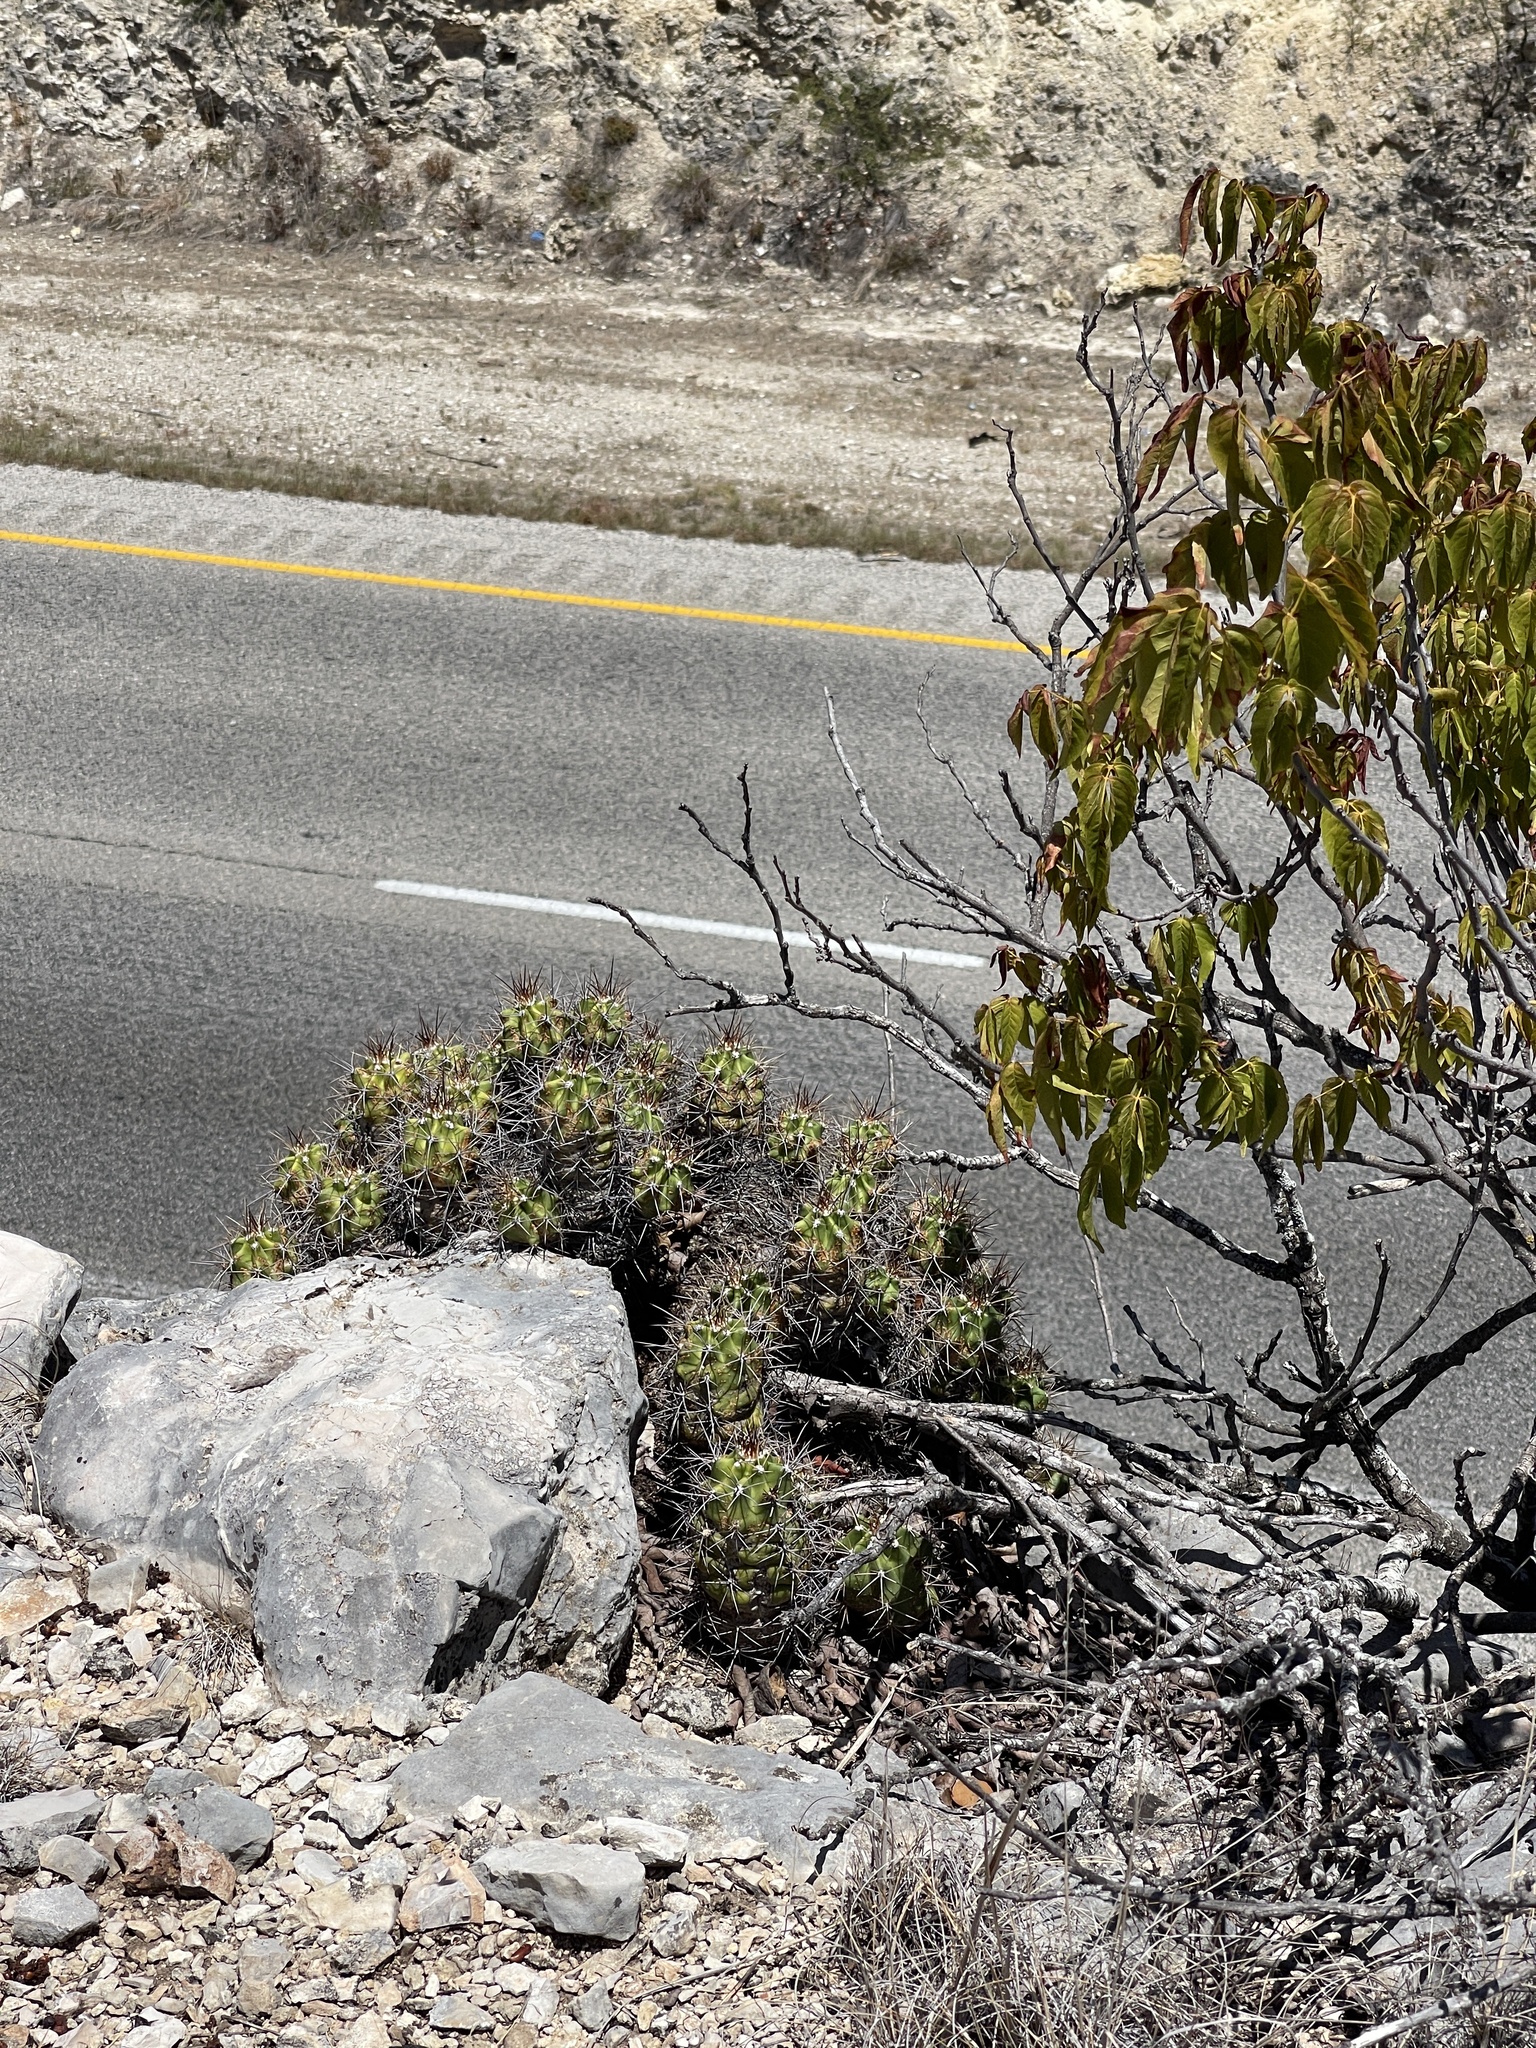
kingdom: Plantae
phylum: Tracheophyta
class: Magnoliopsida
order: Caryophyllales
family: Cactaceae
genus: Echinocereus
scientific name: Echinocereus coccineus
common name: Scarlet hedgehog cactus
